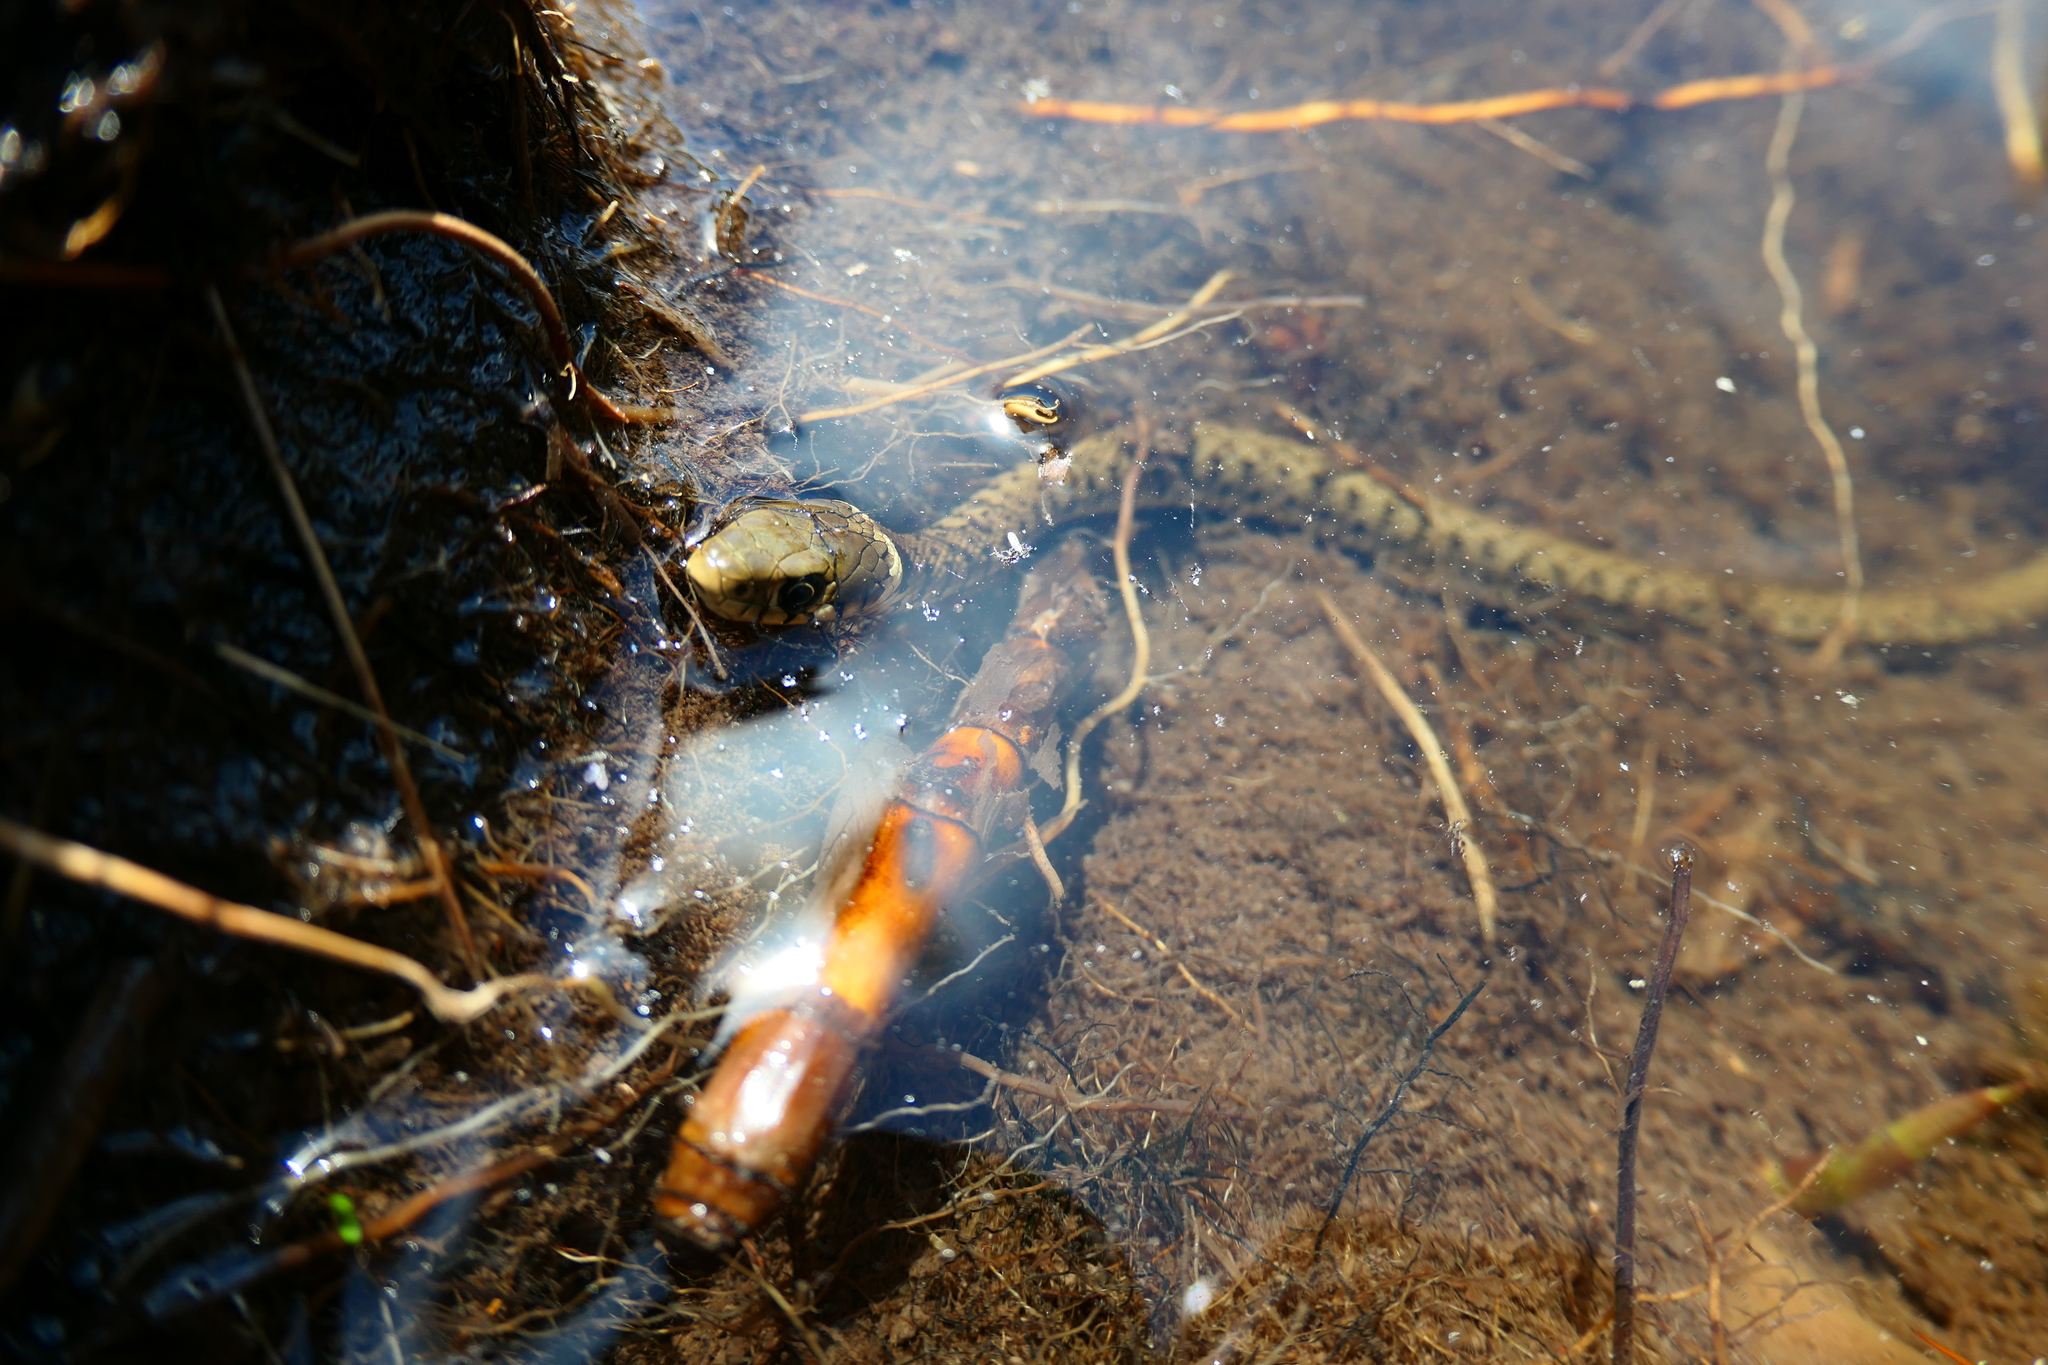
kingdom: Animalia
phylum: Chordata
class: Squamata
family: Colubridae
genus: Natrix
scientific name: Natrix helvetica
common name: Banded grass snake
